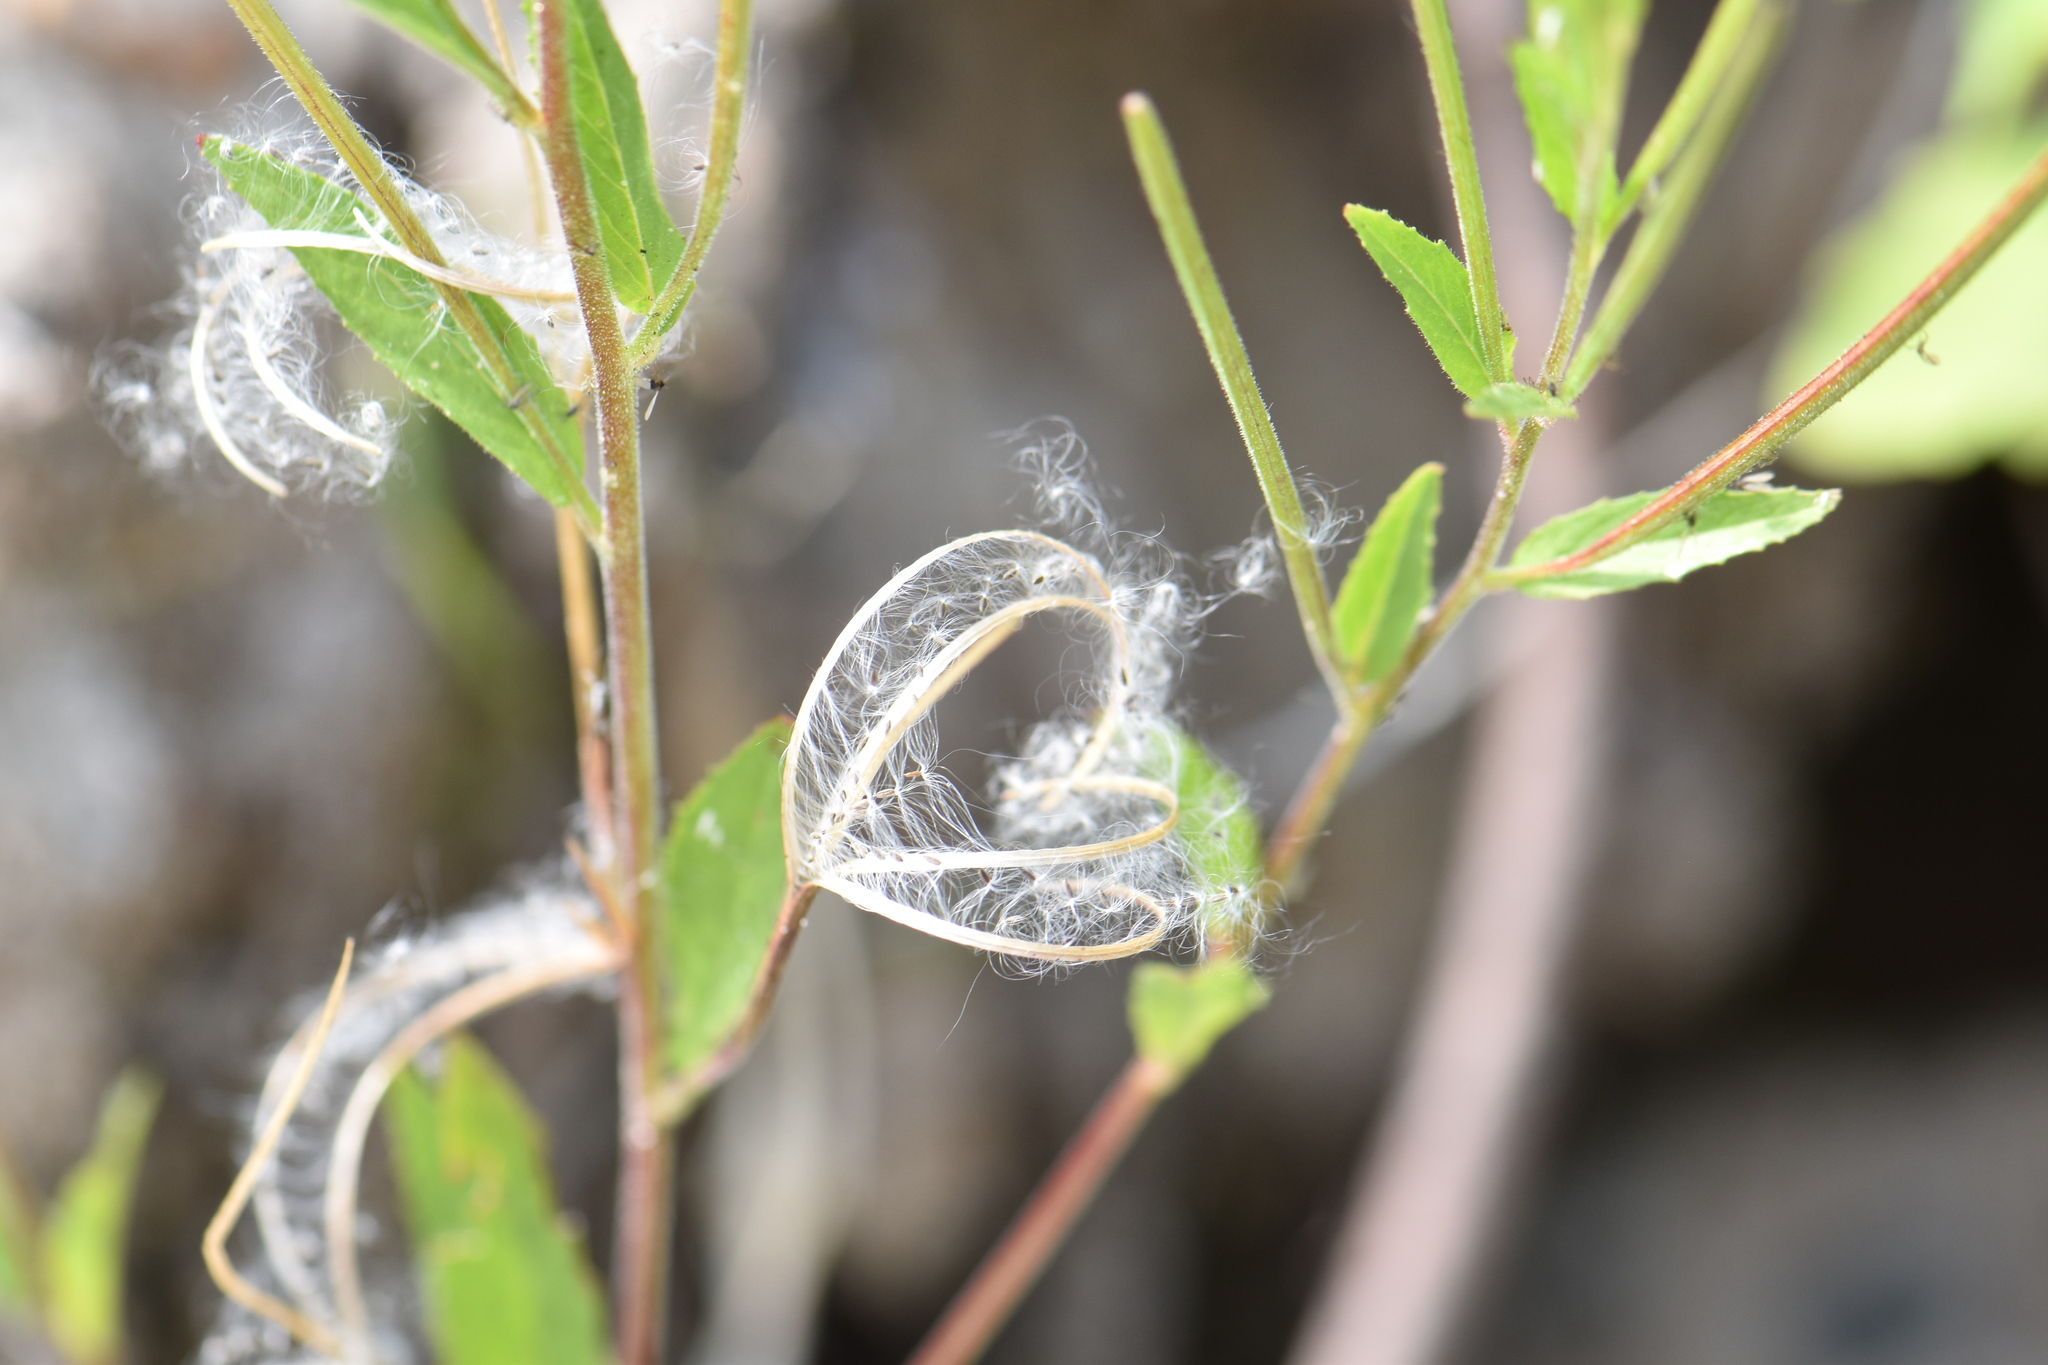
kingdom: Plantae
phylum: Tracheophyta
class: Magnoliopsida
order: Myrtales
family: Onagraceae
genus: Epilobium
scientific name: Epilobium ciliatum
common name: American willowherb
